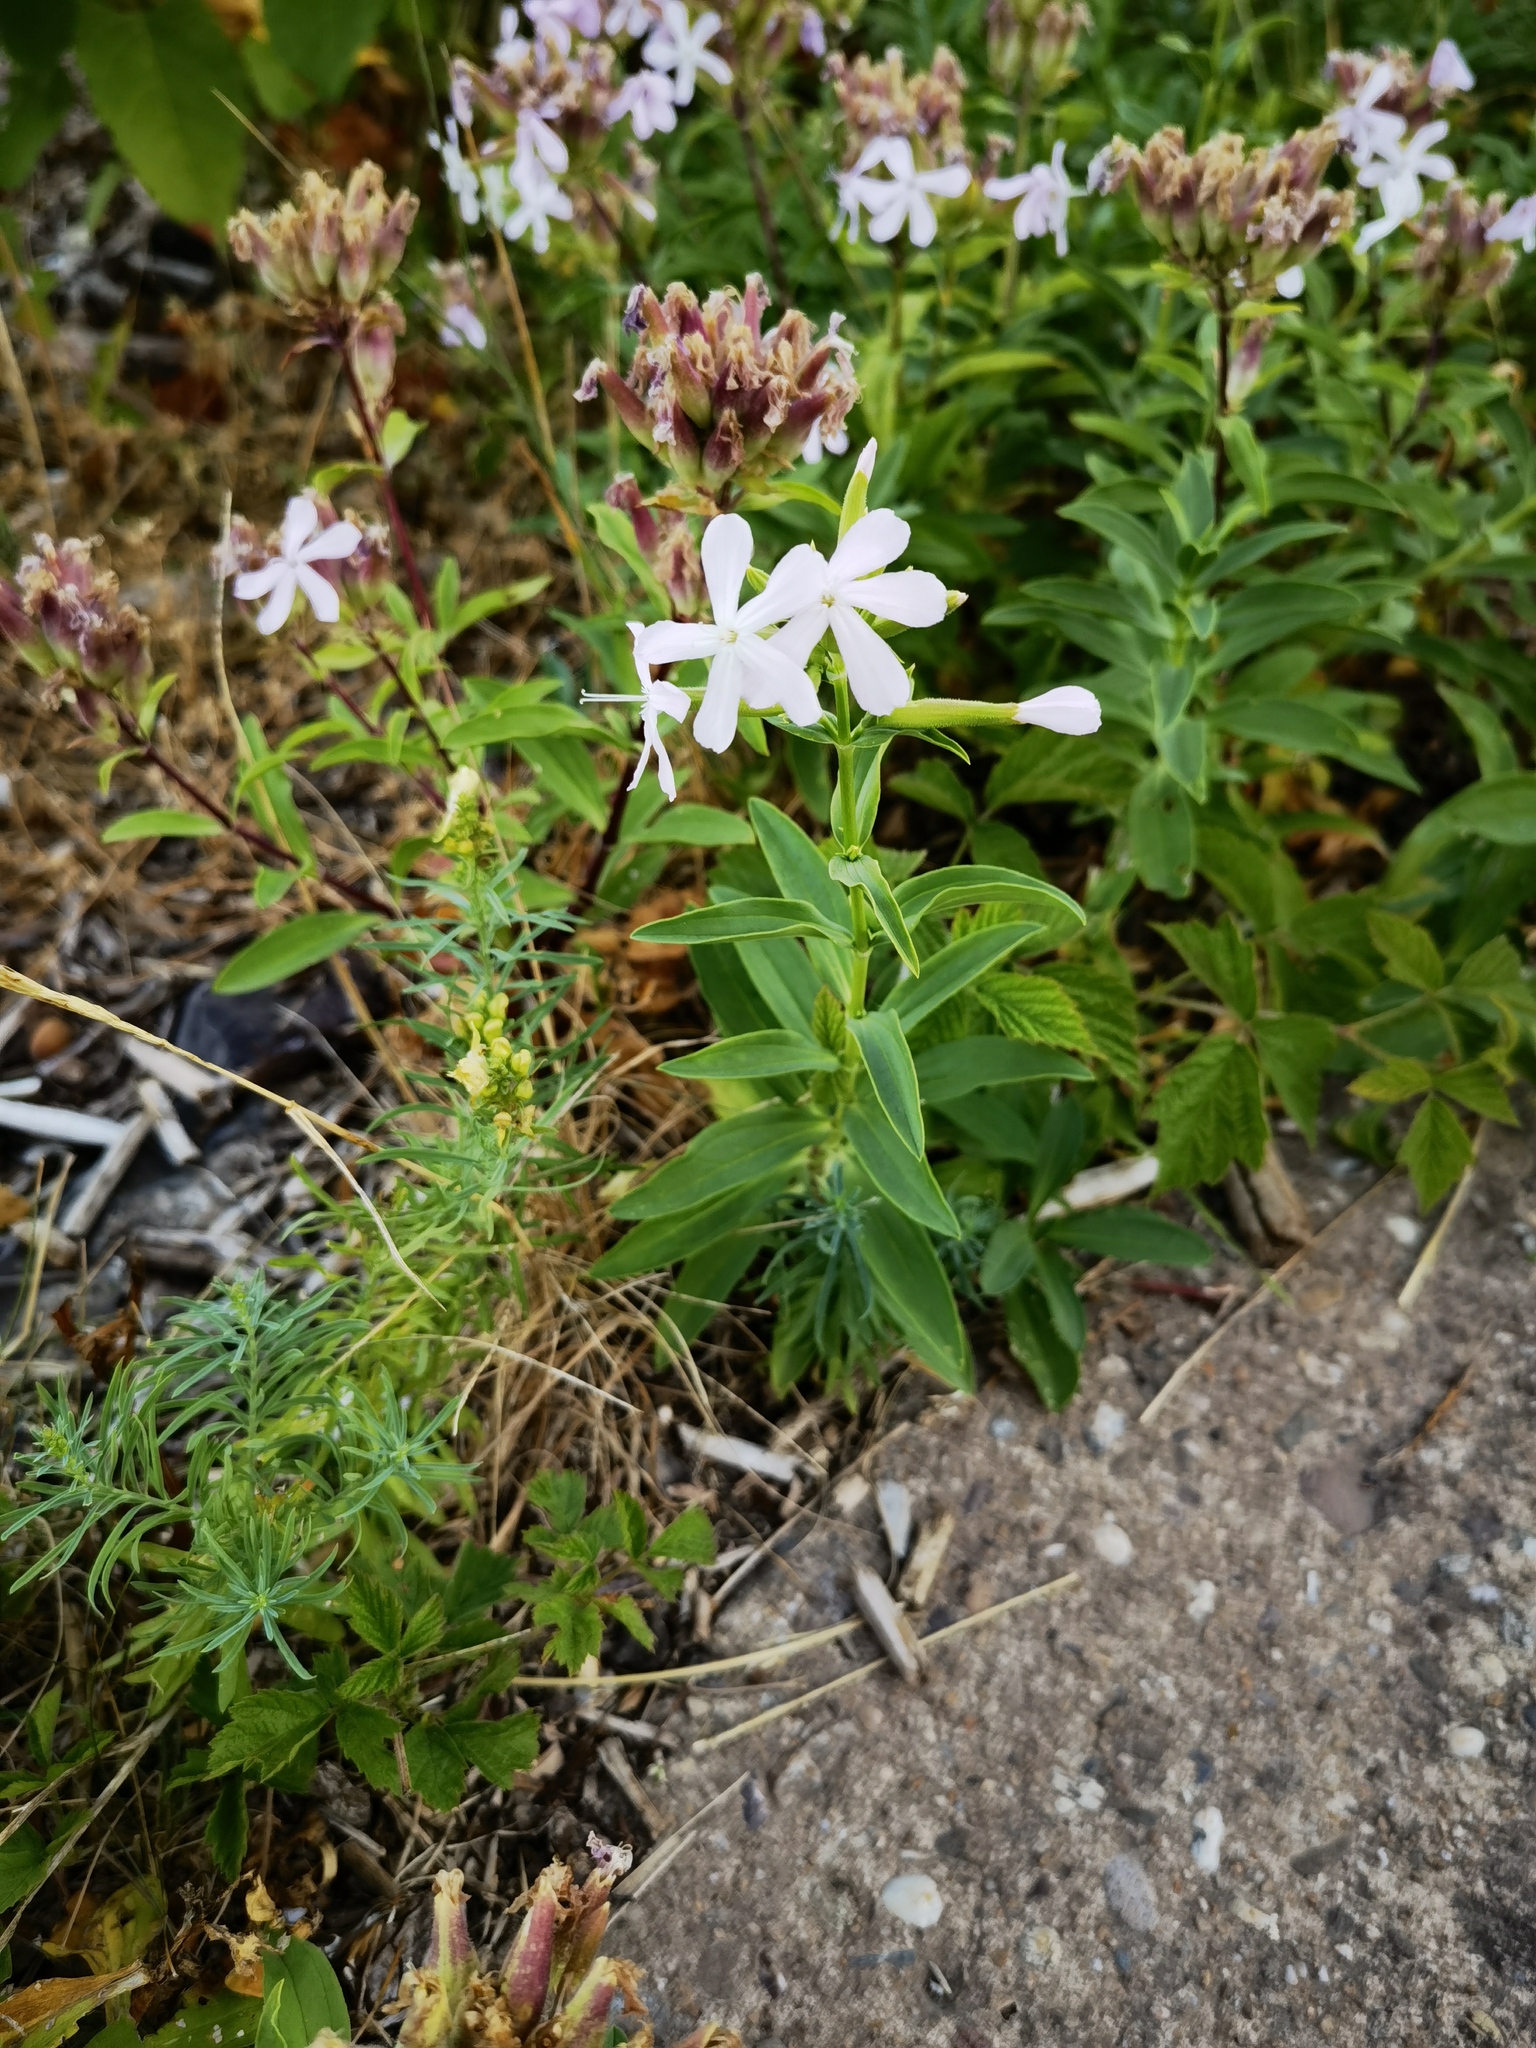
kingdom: Plantae
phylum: Tracheophyta
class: Magnoliopsida
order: Caryophyllales
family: Caryophyllaceae
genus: Saponaria
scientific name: Saponaria officinalis
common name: Soapwort
